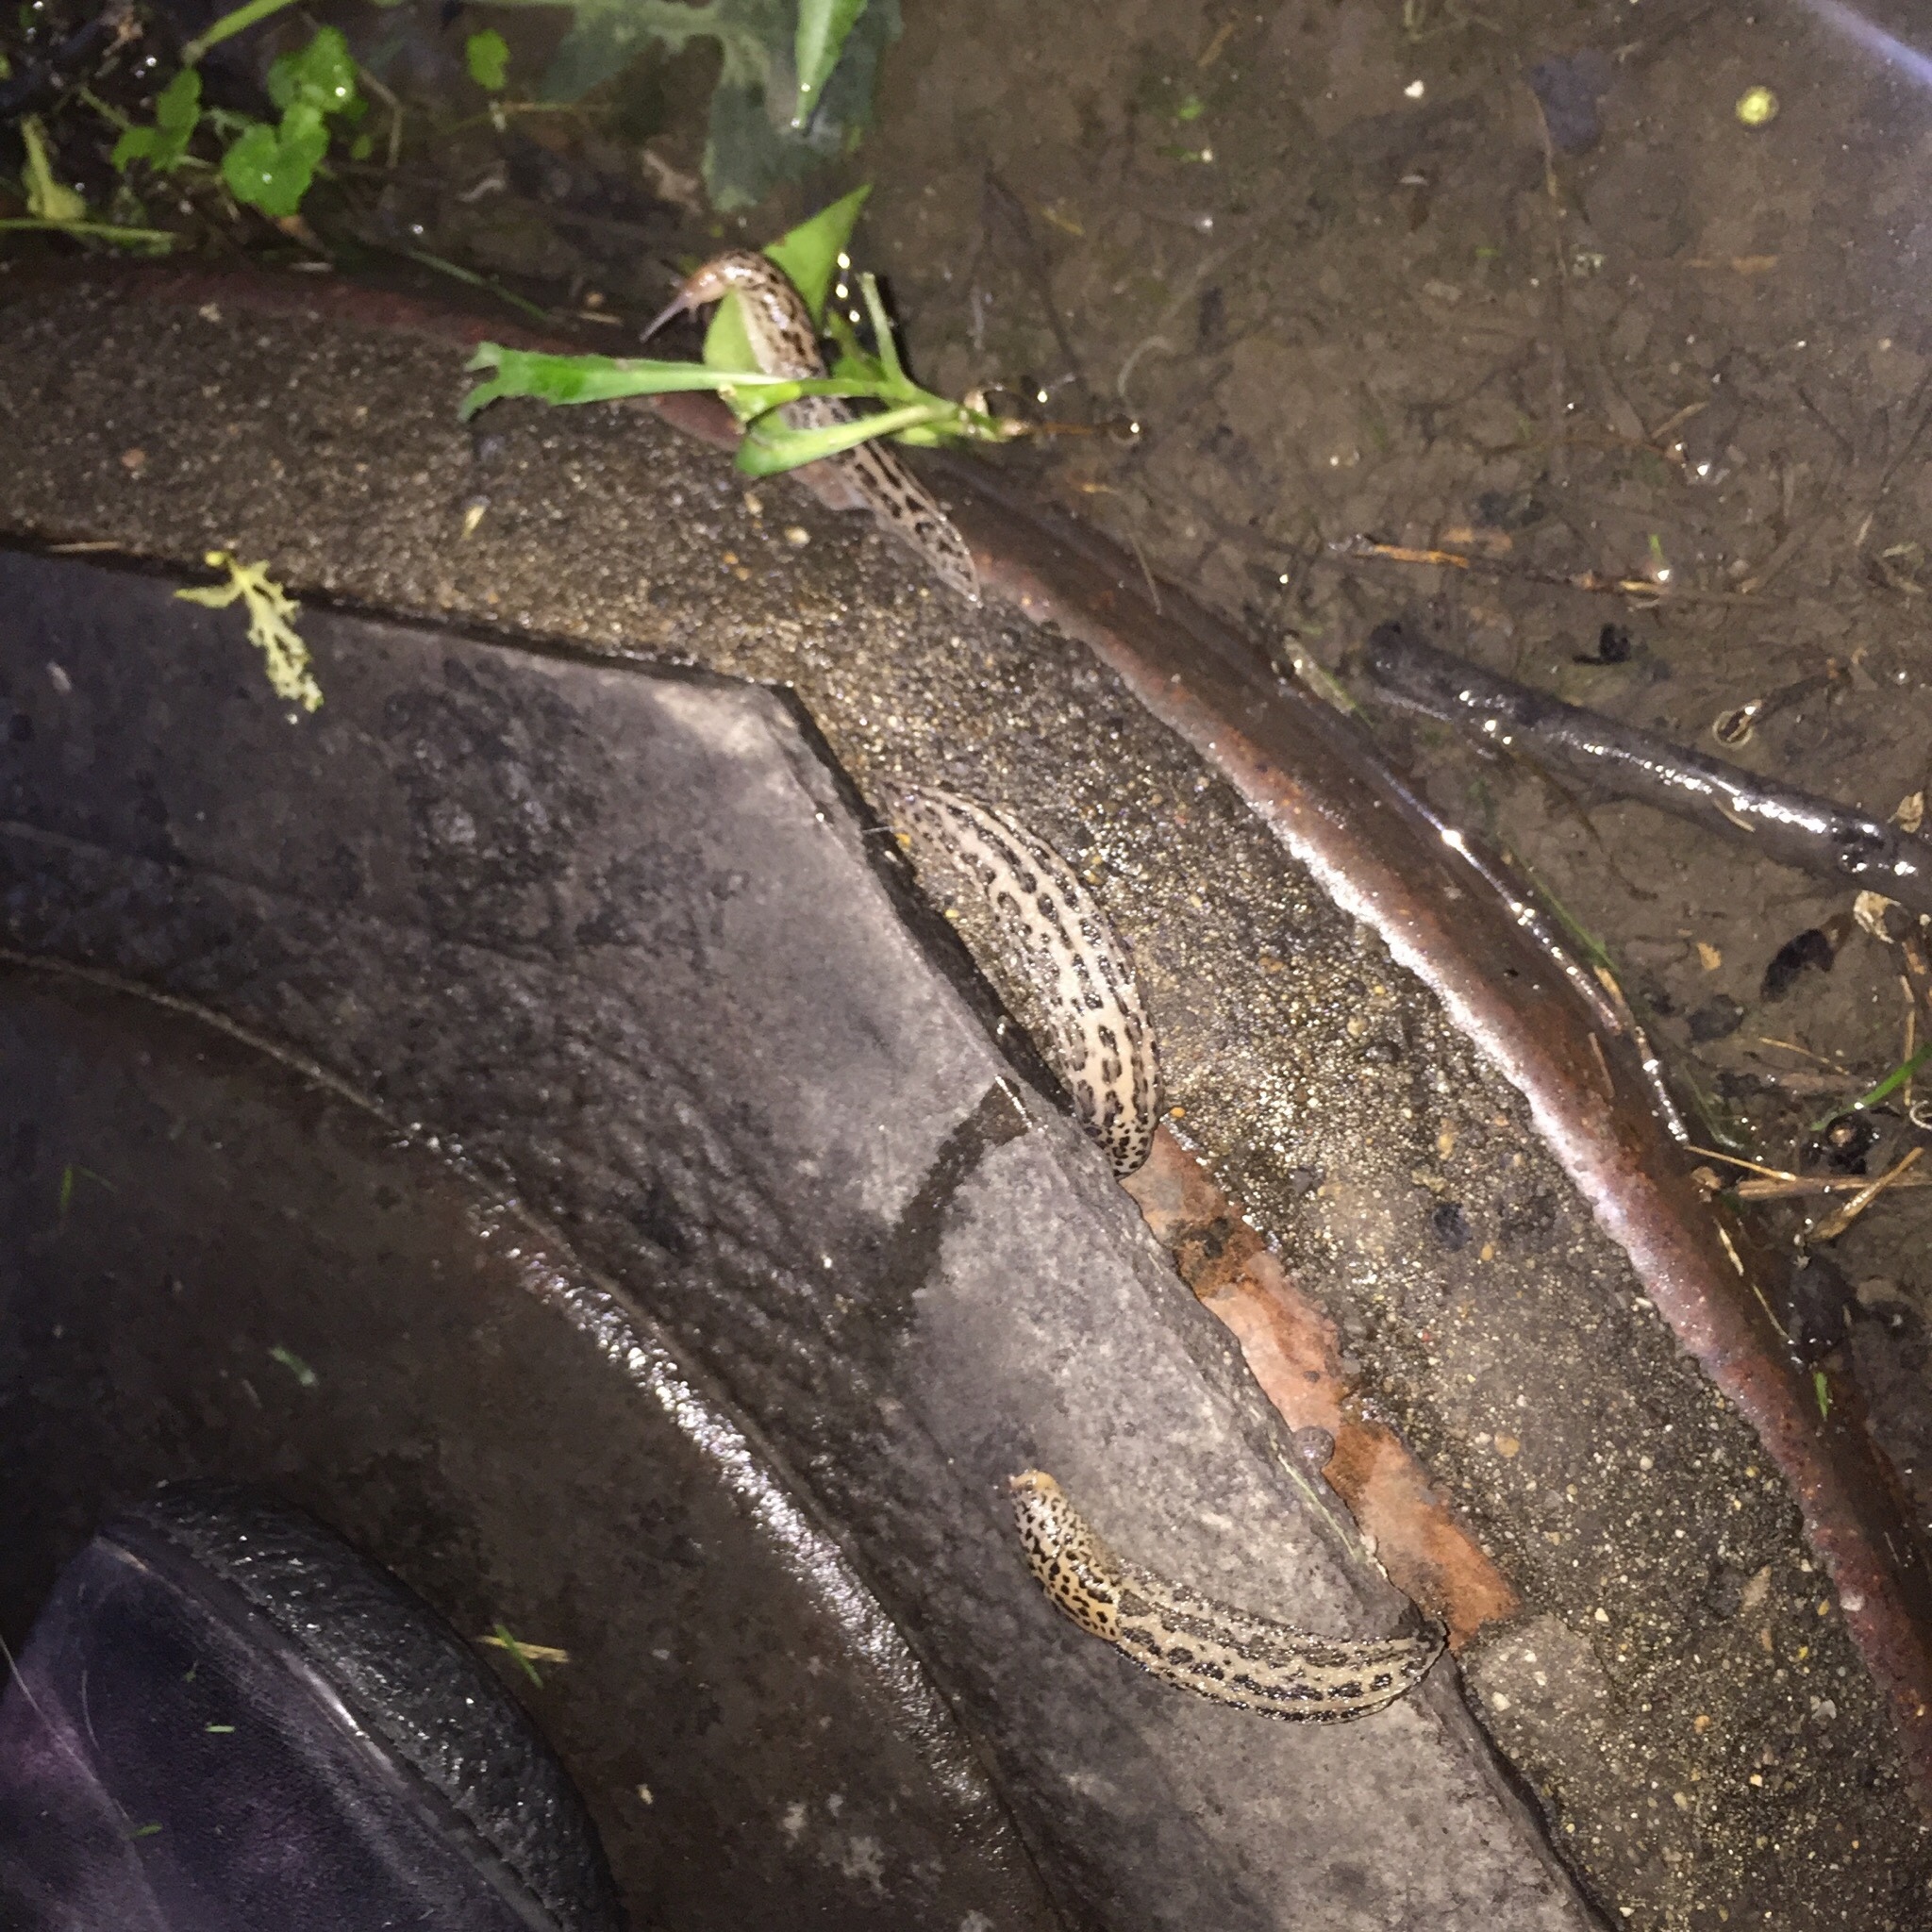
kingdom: Animalia
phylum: Mollusca
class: Gastropoda
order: Stylommatophora
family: Limacidae
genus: Limax
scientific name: Limax maximus
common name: Great grey slug
